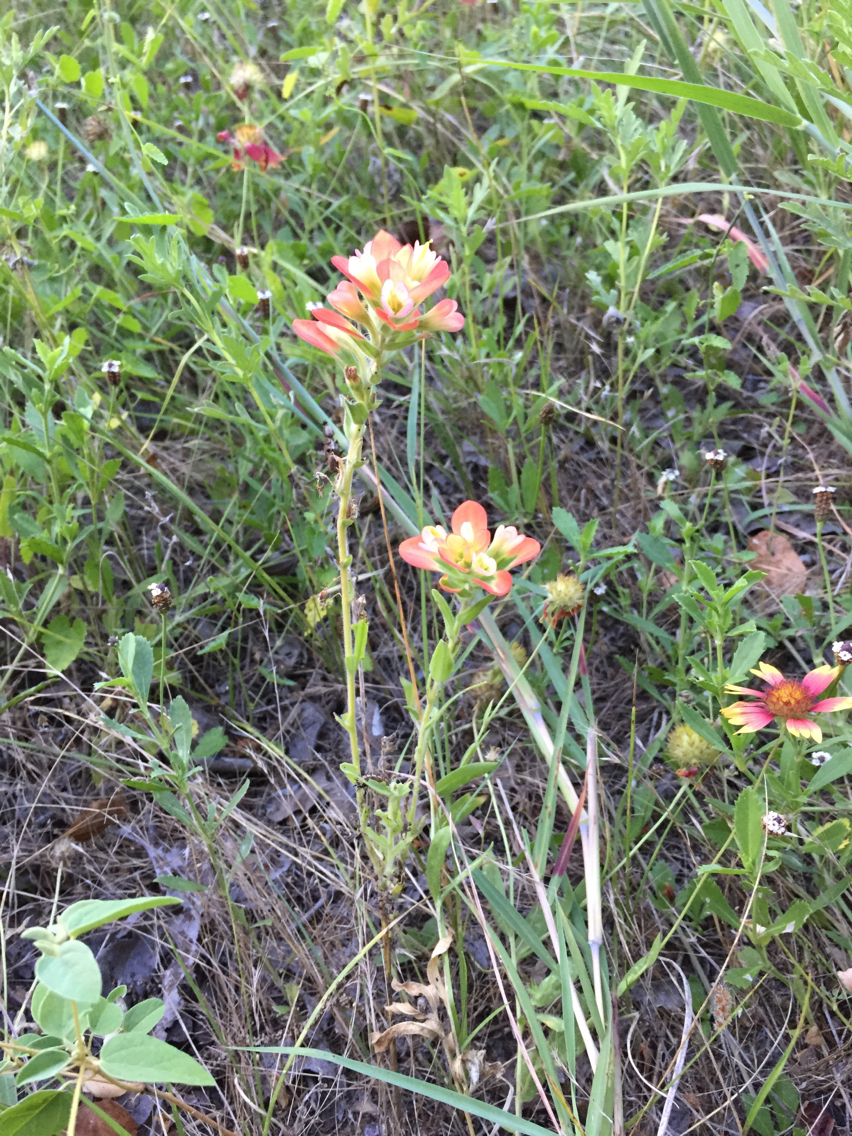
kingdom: Plantae
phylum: Tracheophyta
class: Magnoliopsida
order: Lamiales
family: Orobanchaceae
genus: Castilleja
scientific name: Castilleja indivisa
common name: Texas paintbrush
